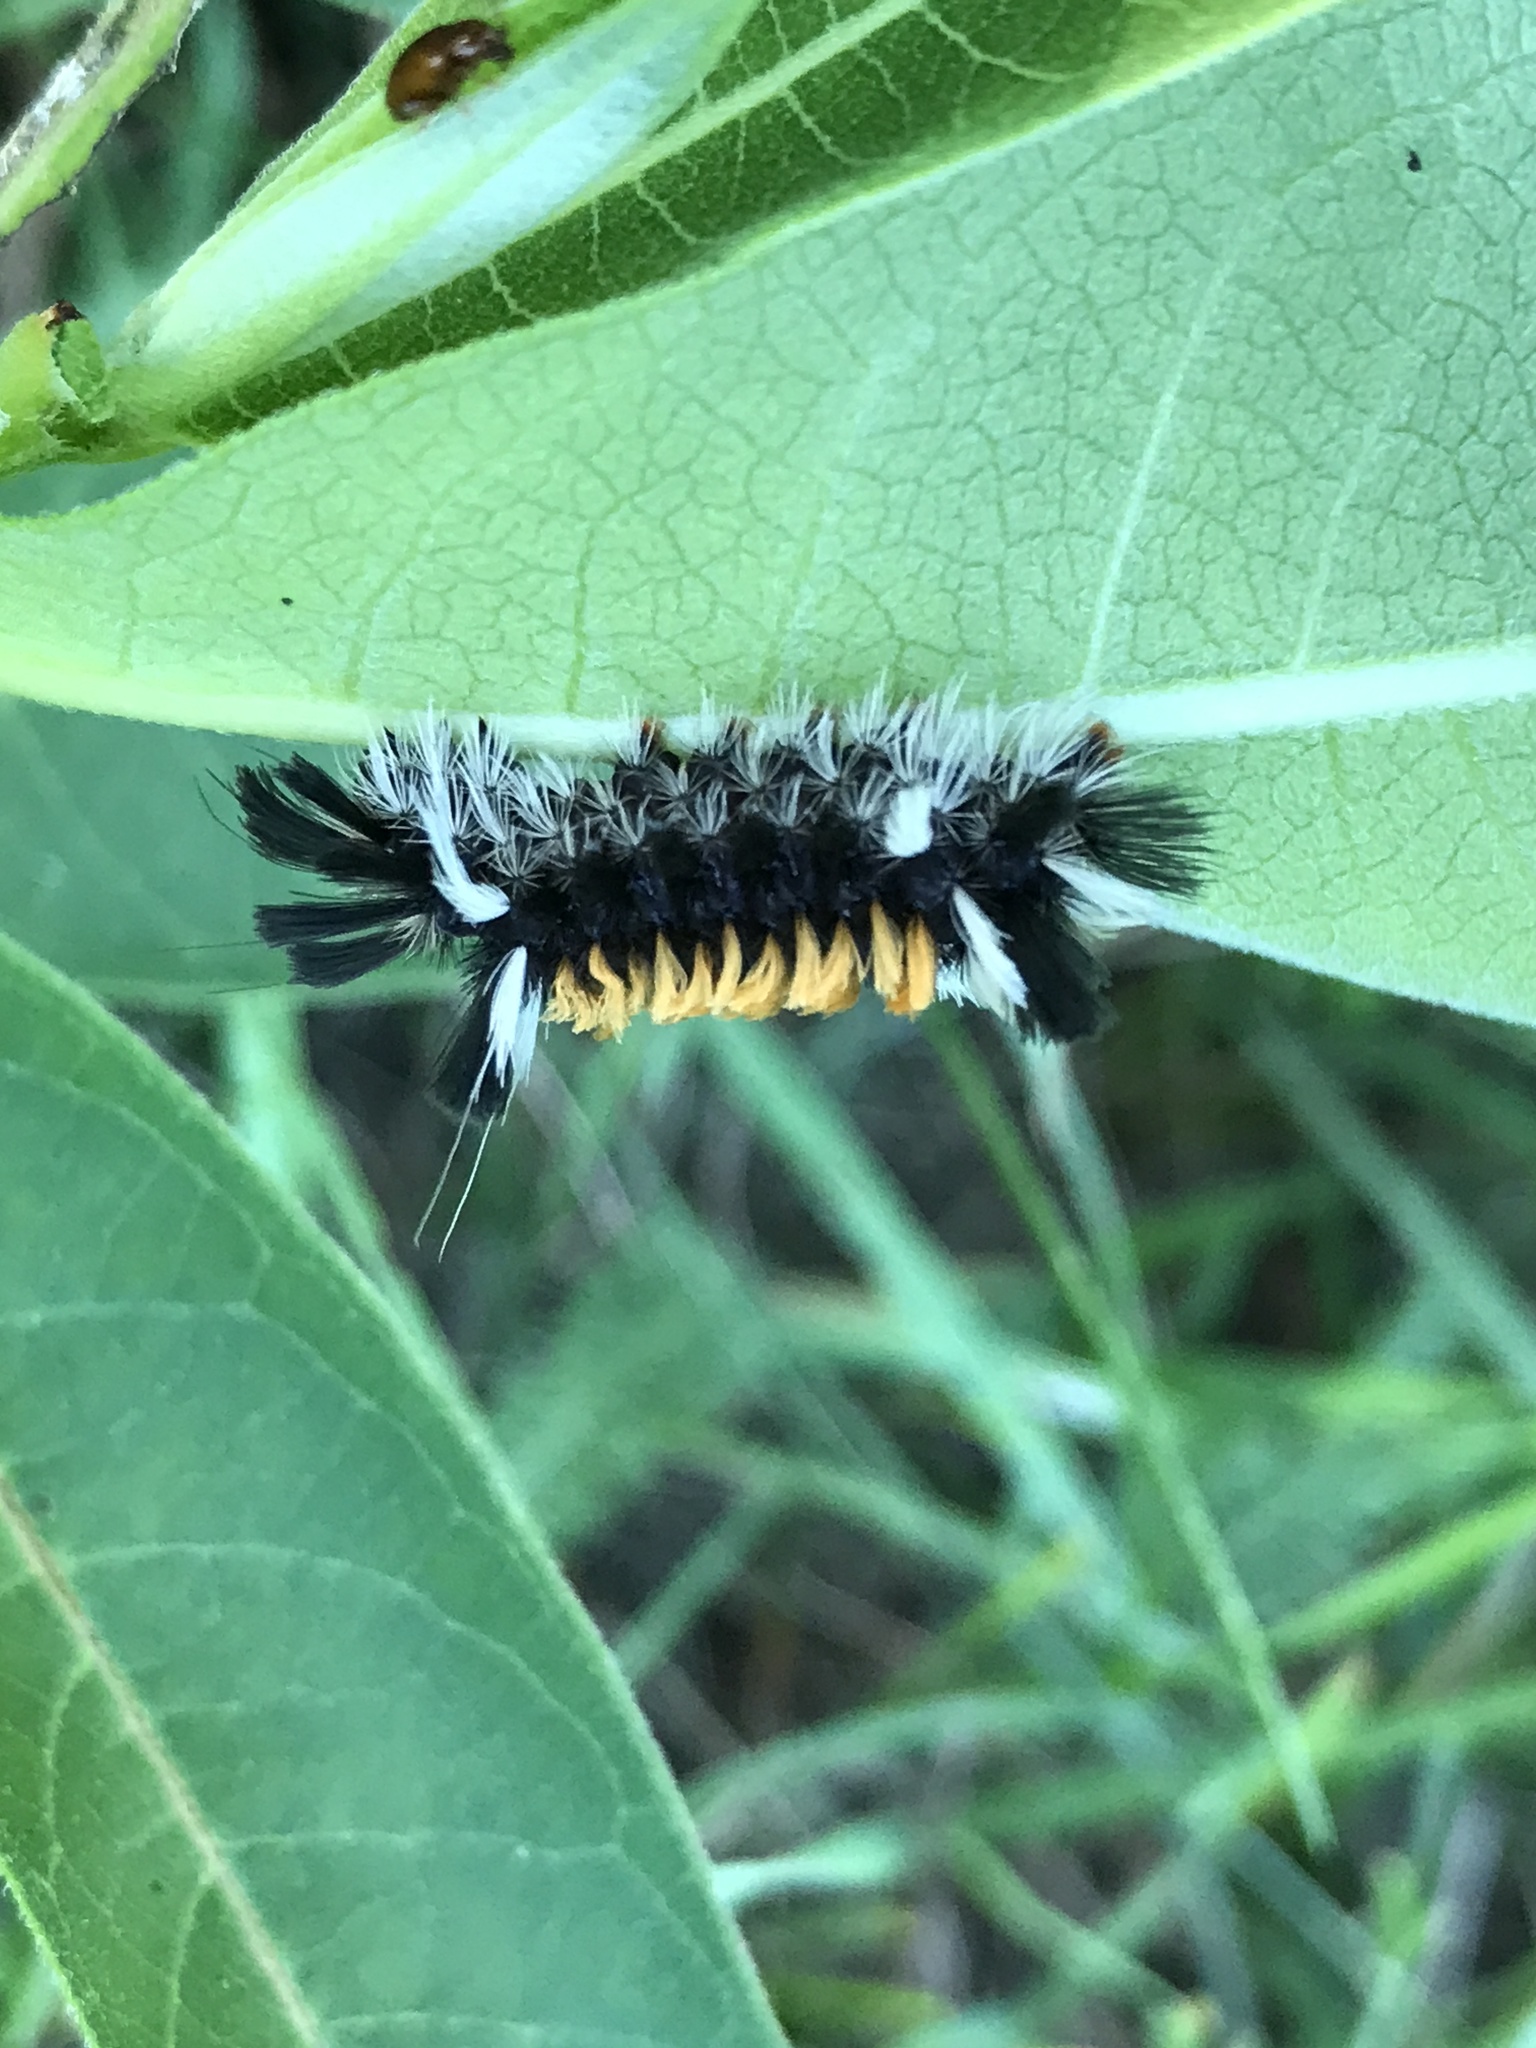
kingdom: Animalia
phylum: Arthropoda
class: Insecta
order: Lepidoptera
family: Erebidae
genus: Euchaetes
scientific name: Euchaetes egle
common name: Milkweed tussock moth
